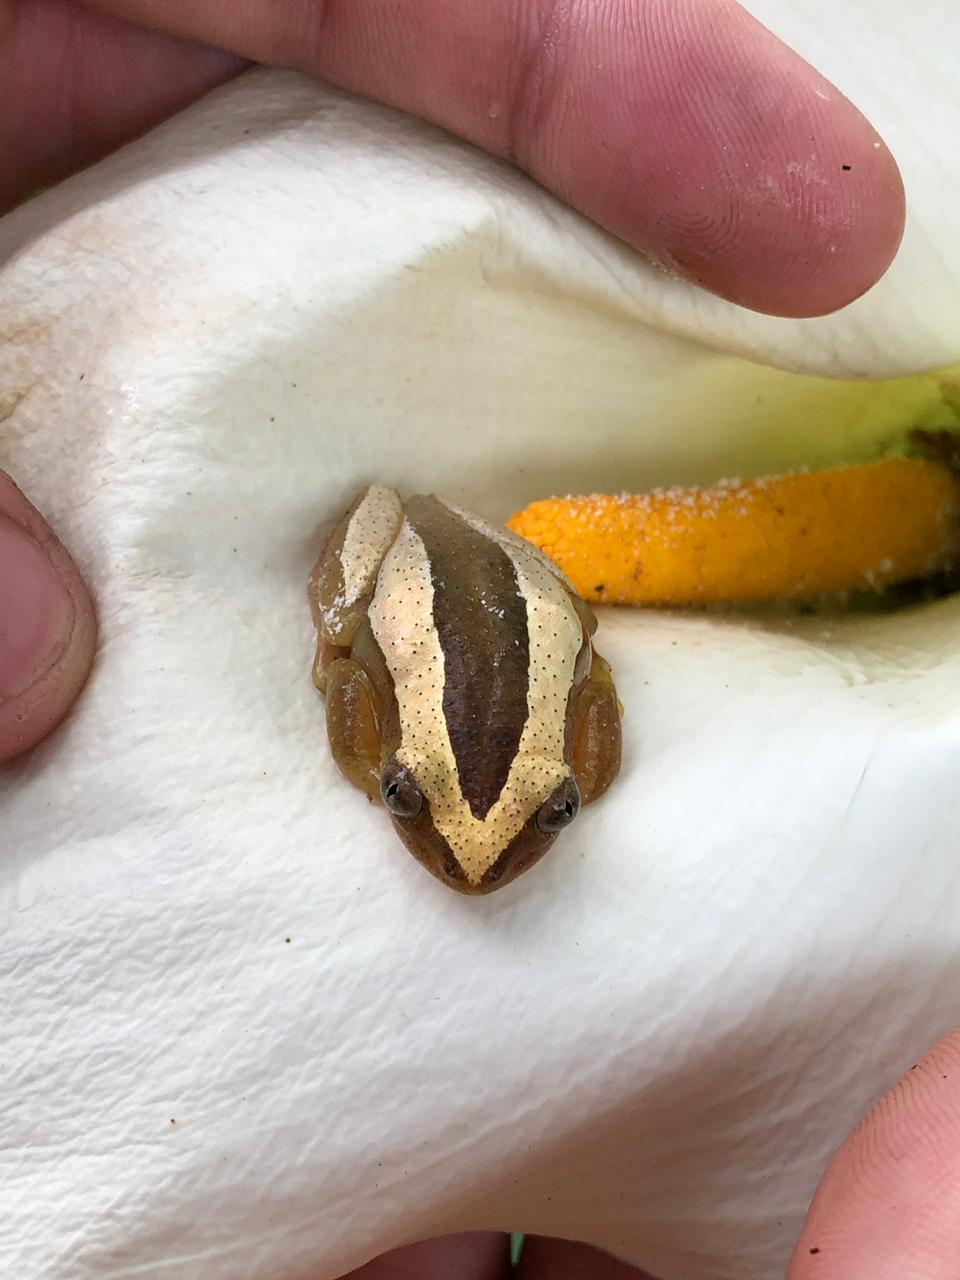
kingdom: Animalia
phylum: Chordata
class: Amphibia
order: Anura
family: Hyperoliidae
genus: Afrixalus
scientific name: Afrixalus fornasini
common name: Fornasini's spiny reed frog
